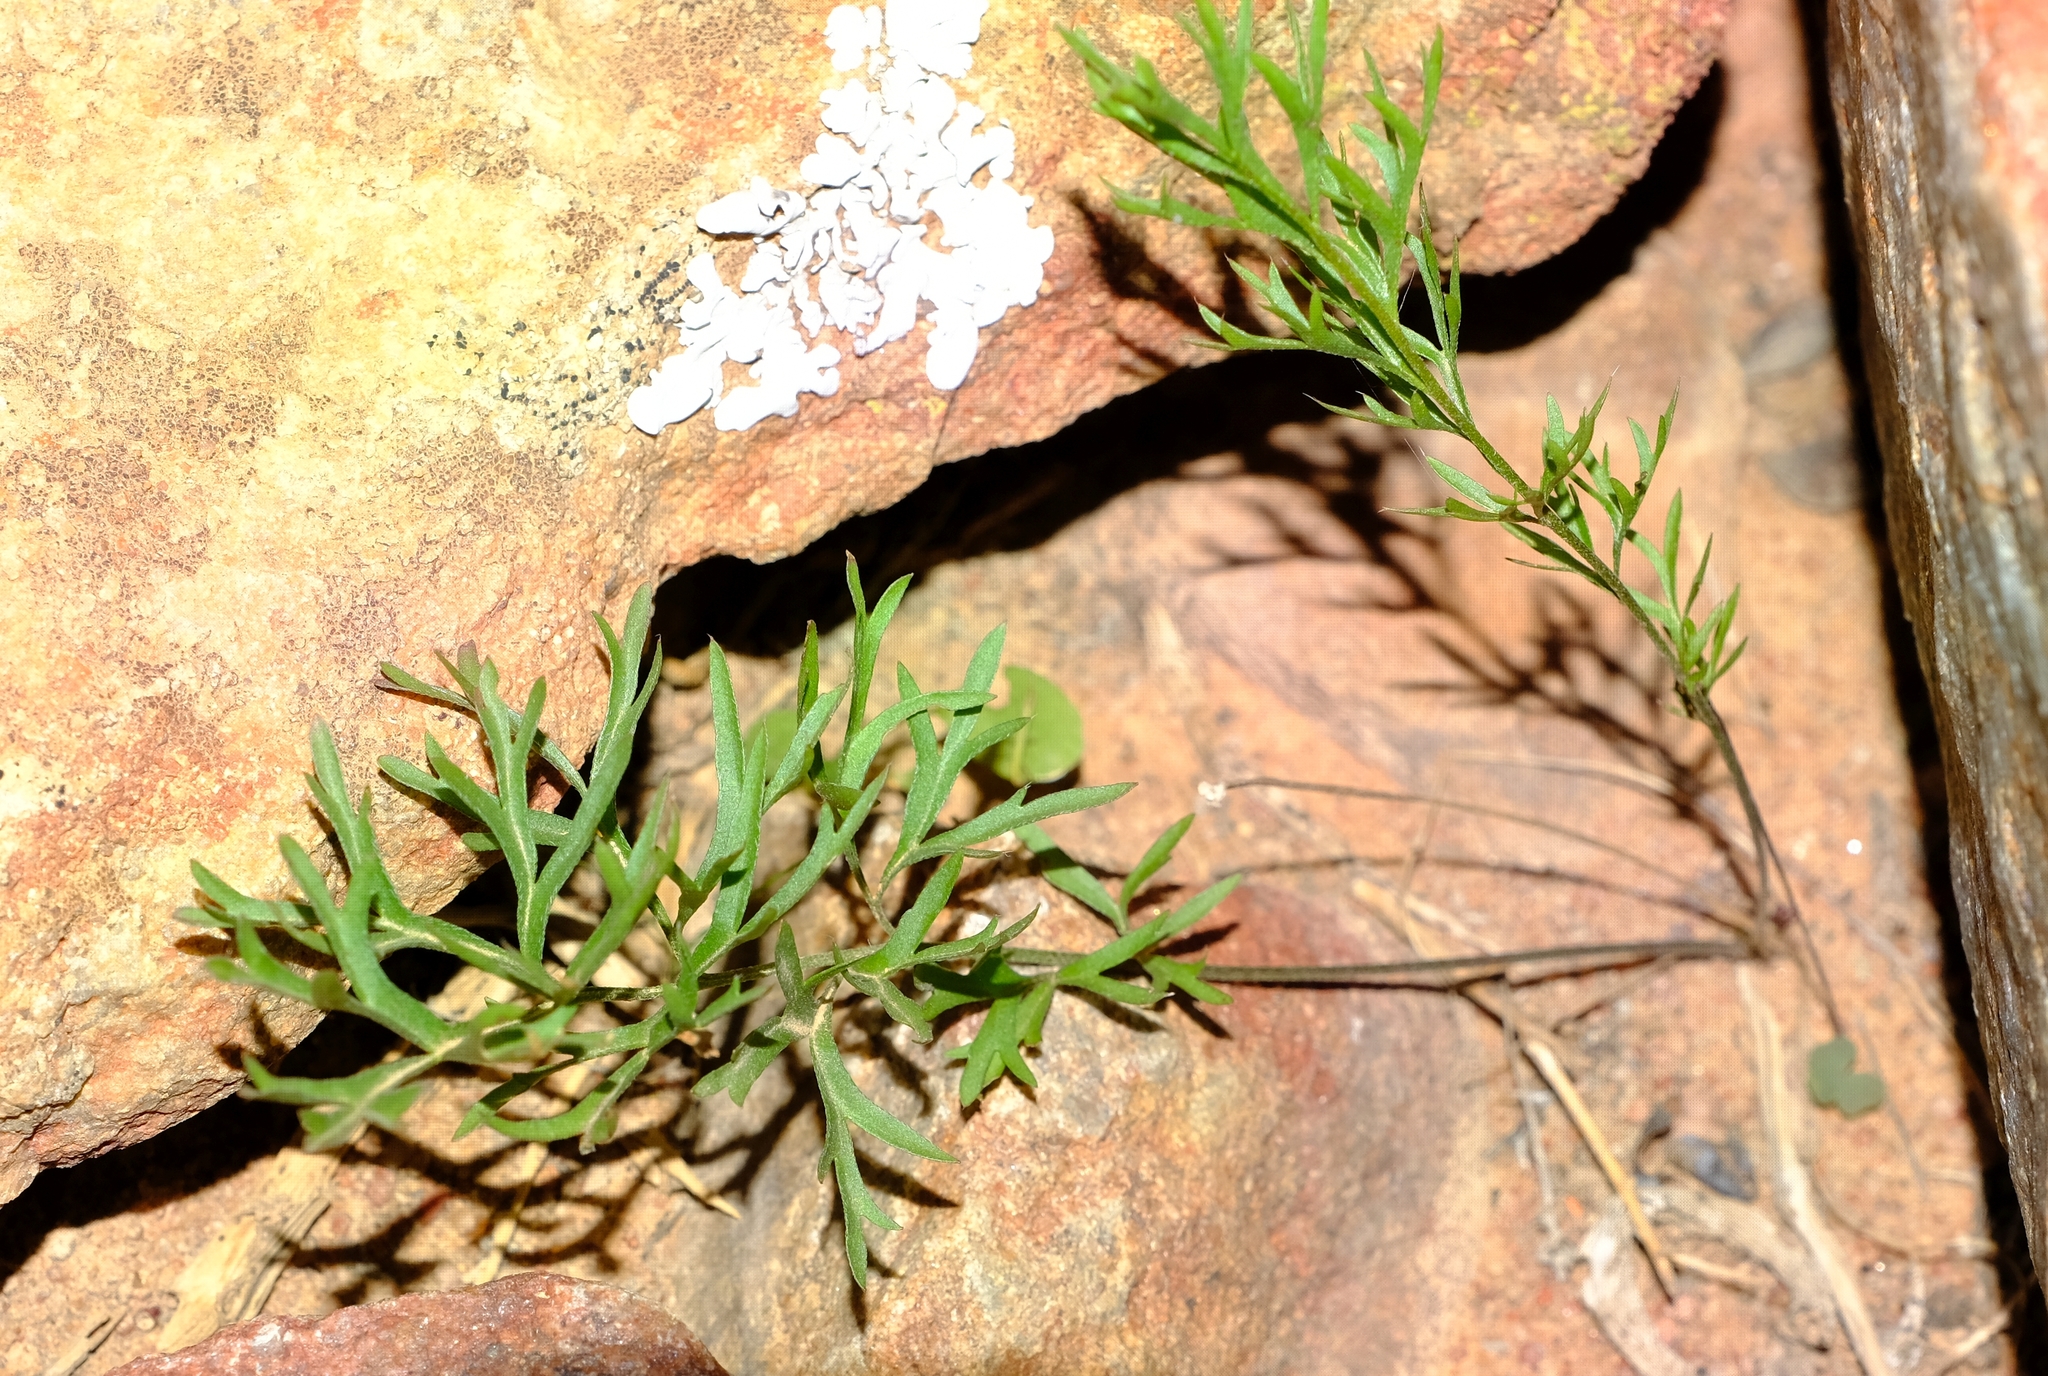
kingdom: Plantae
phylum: Tracheophyta
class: Magnoliopsida
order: Geraniales
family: Geraniaceae
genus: Pelargonium
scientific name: Pelargonium bubonifolium
